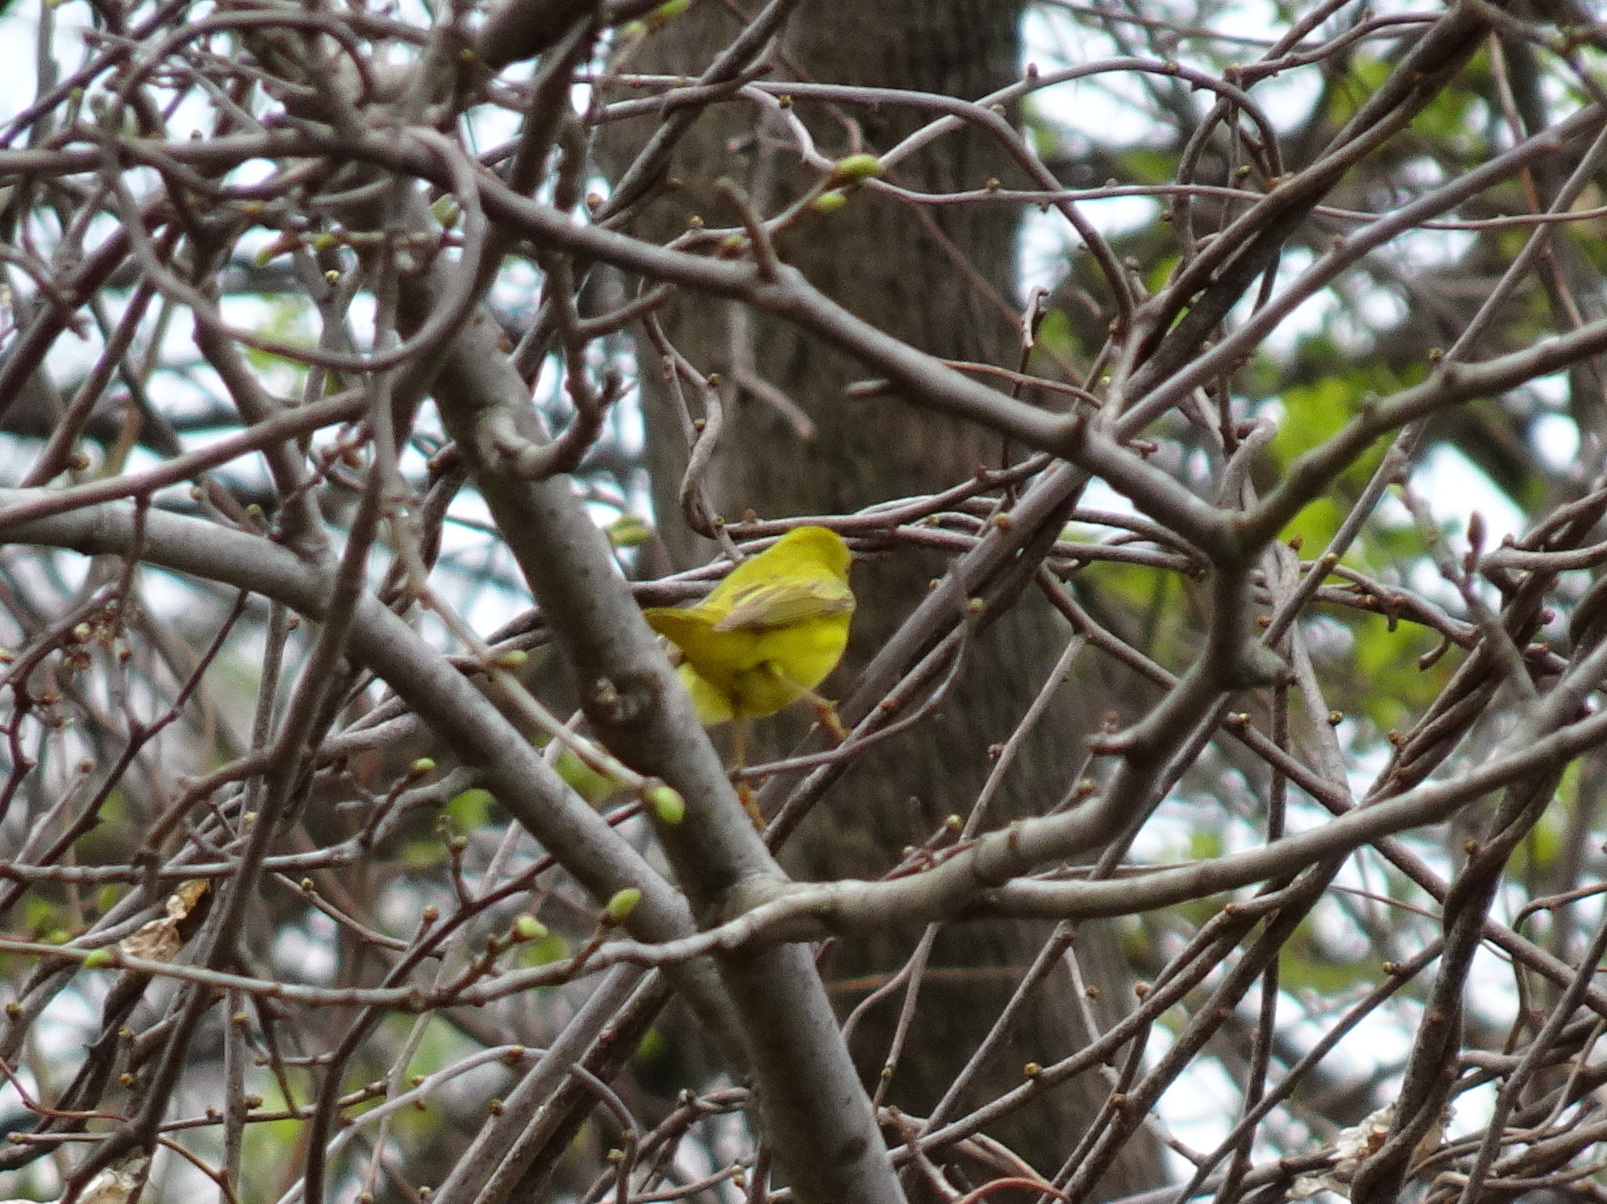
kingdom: Animalia
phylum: Chordata
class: Aves
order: Passeriformes
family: Parulidae
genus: Setophaga
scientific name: Setophaga petechia
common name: Yellow warbler
